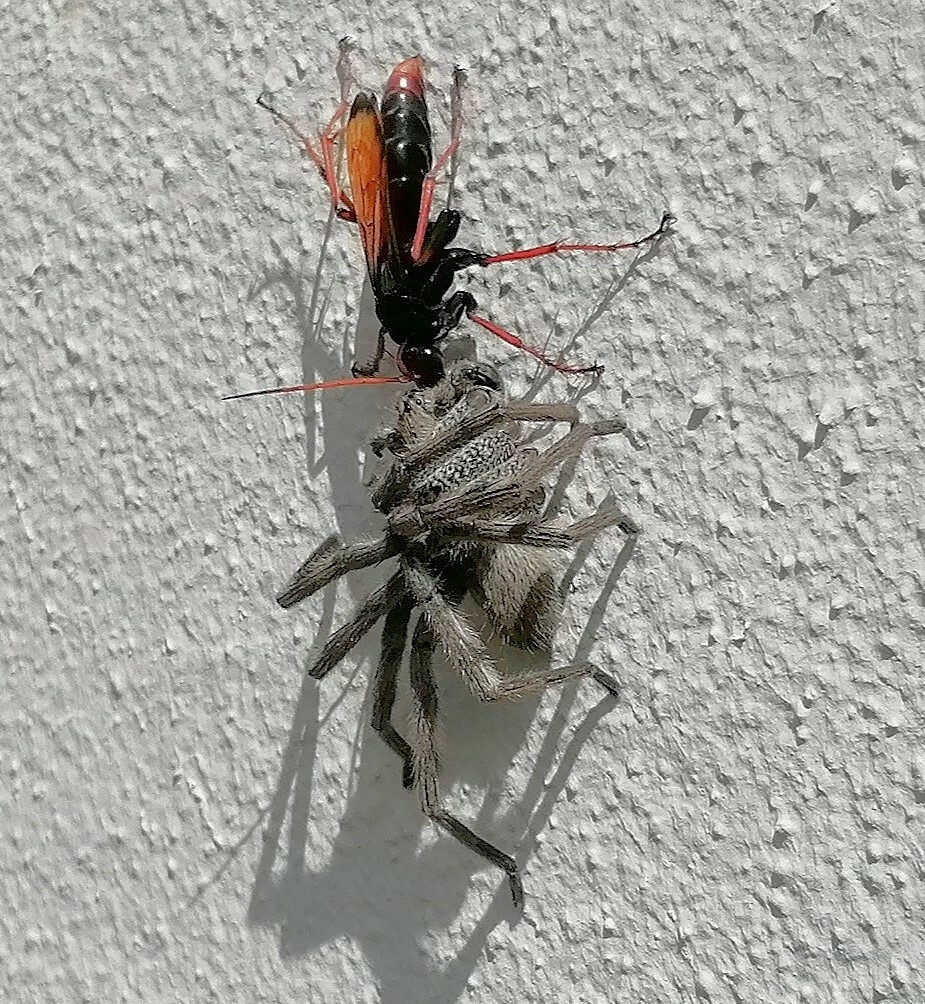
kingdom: Animalia
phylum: Arthropoda
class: Arachnida
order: Araneae
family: Sparassidae
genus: Palystes
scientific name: Palystes castaneus
